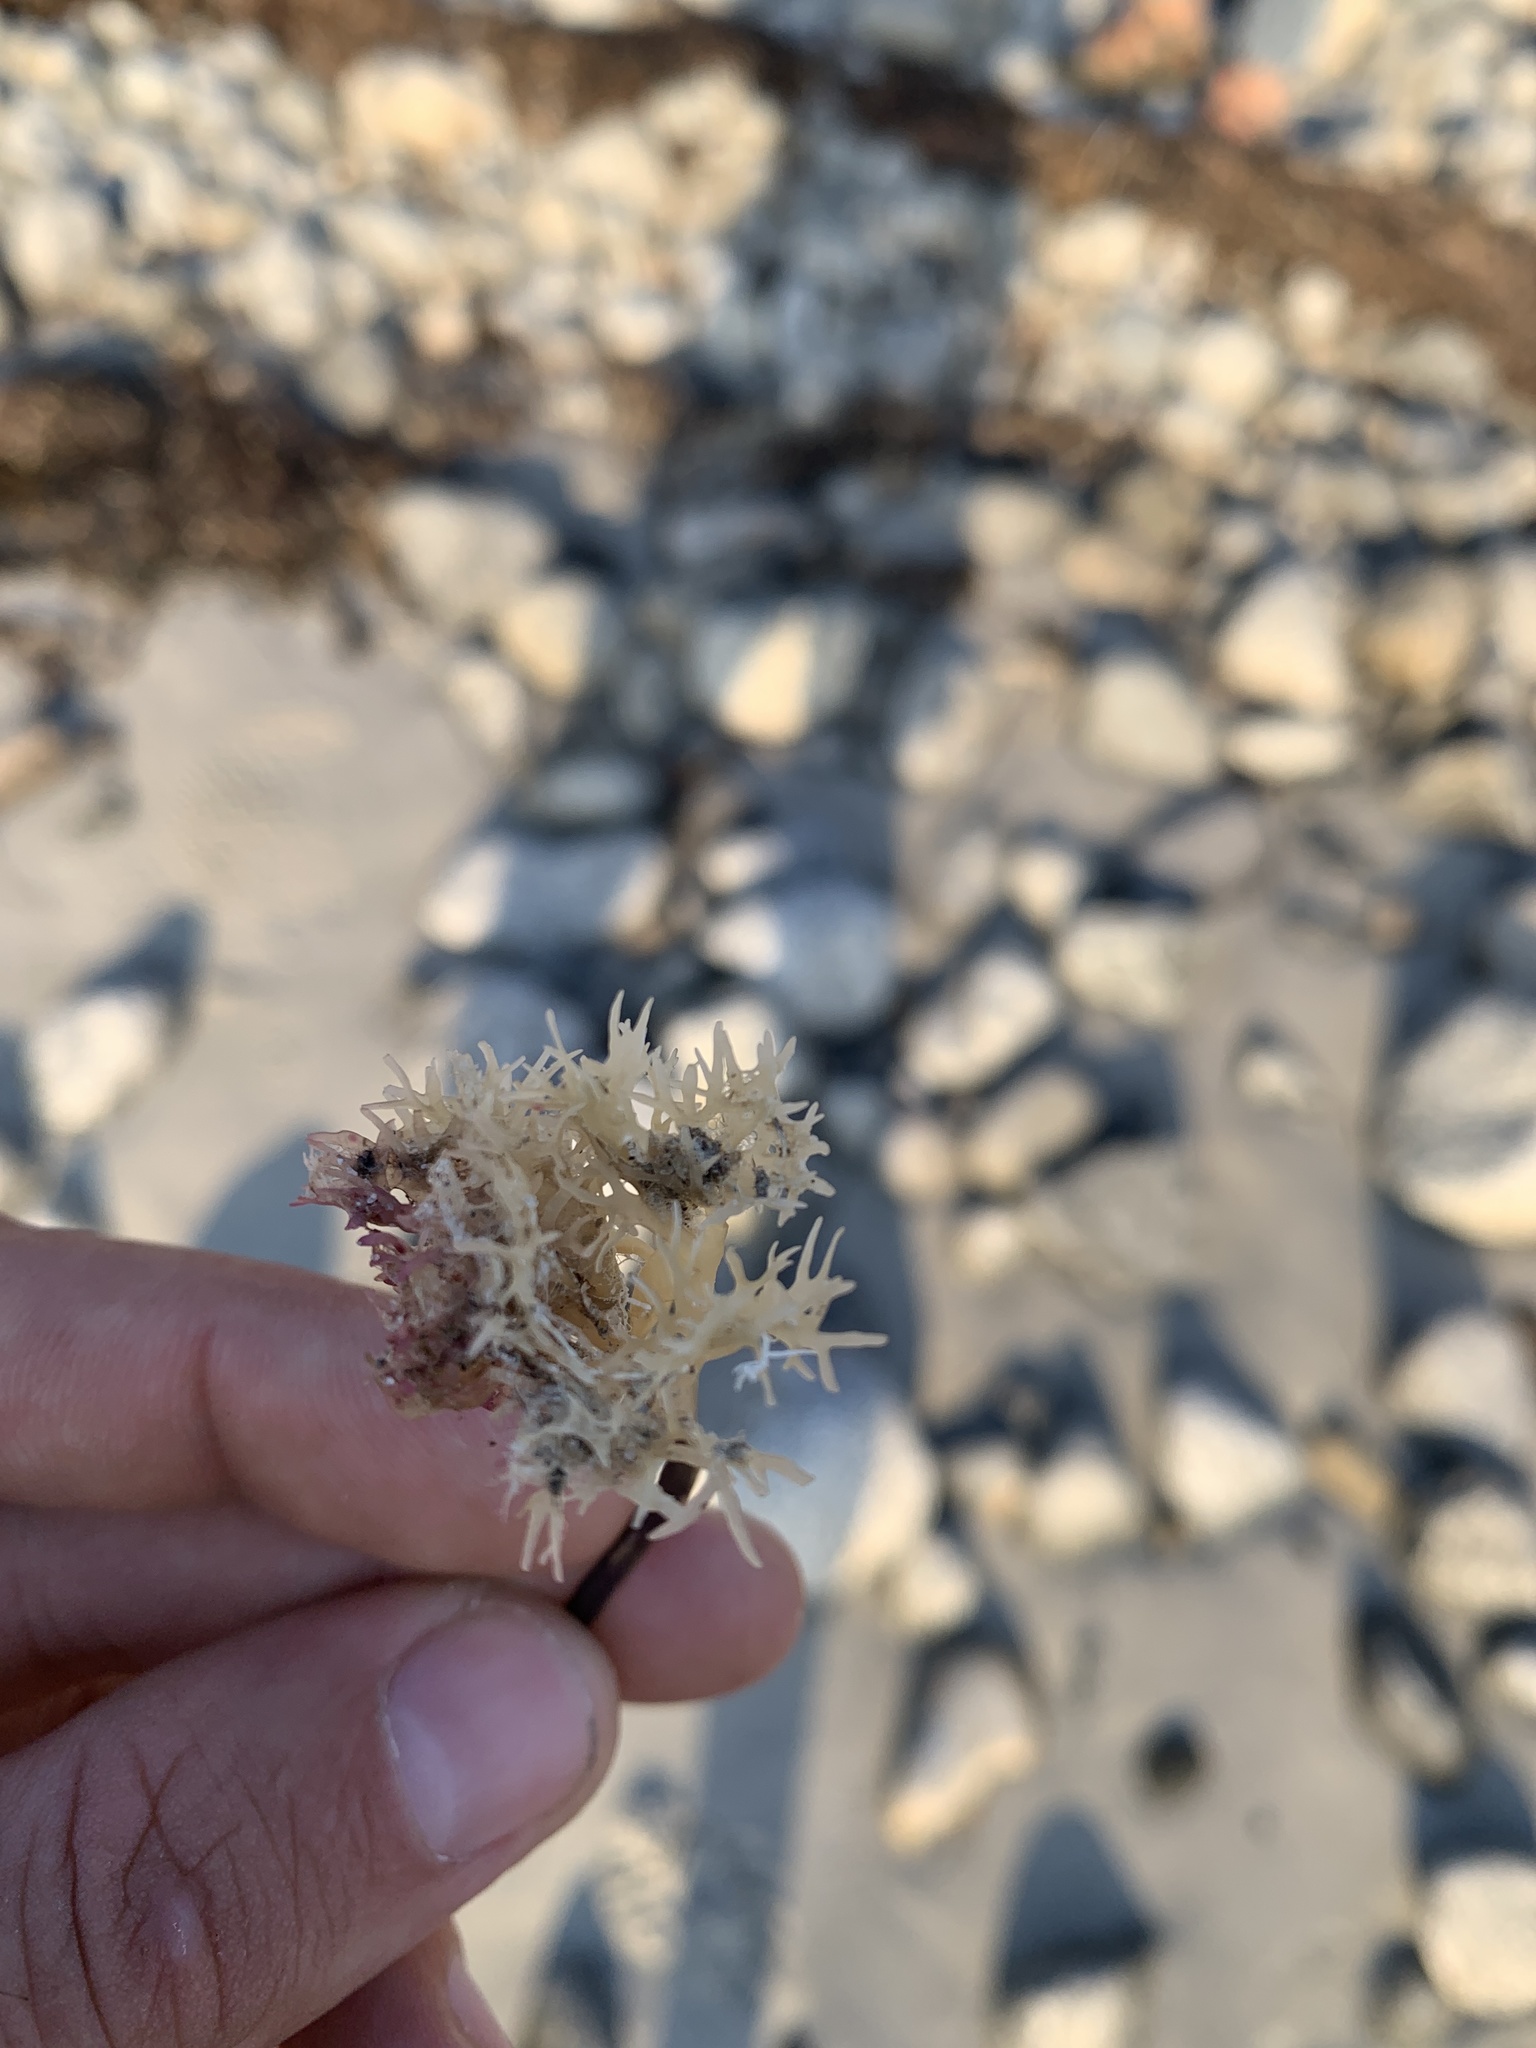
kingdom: Plantae
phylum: Rhodophyta
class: Florideophyceae
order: Gigartinales
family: Gigartinaceae
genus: Chondrus
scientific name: Chondrus crispus
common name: Carrageen
